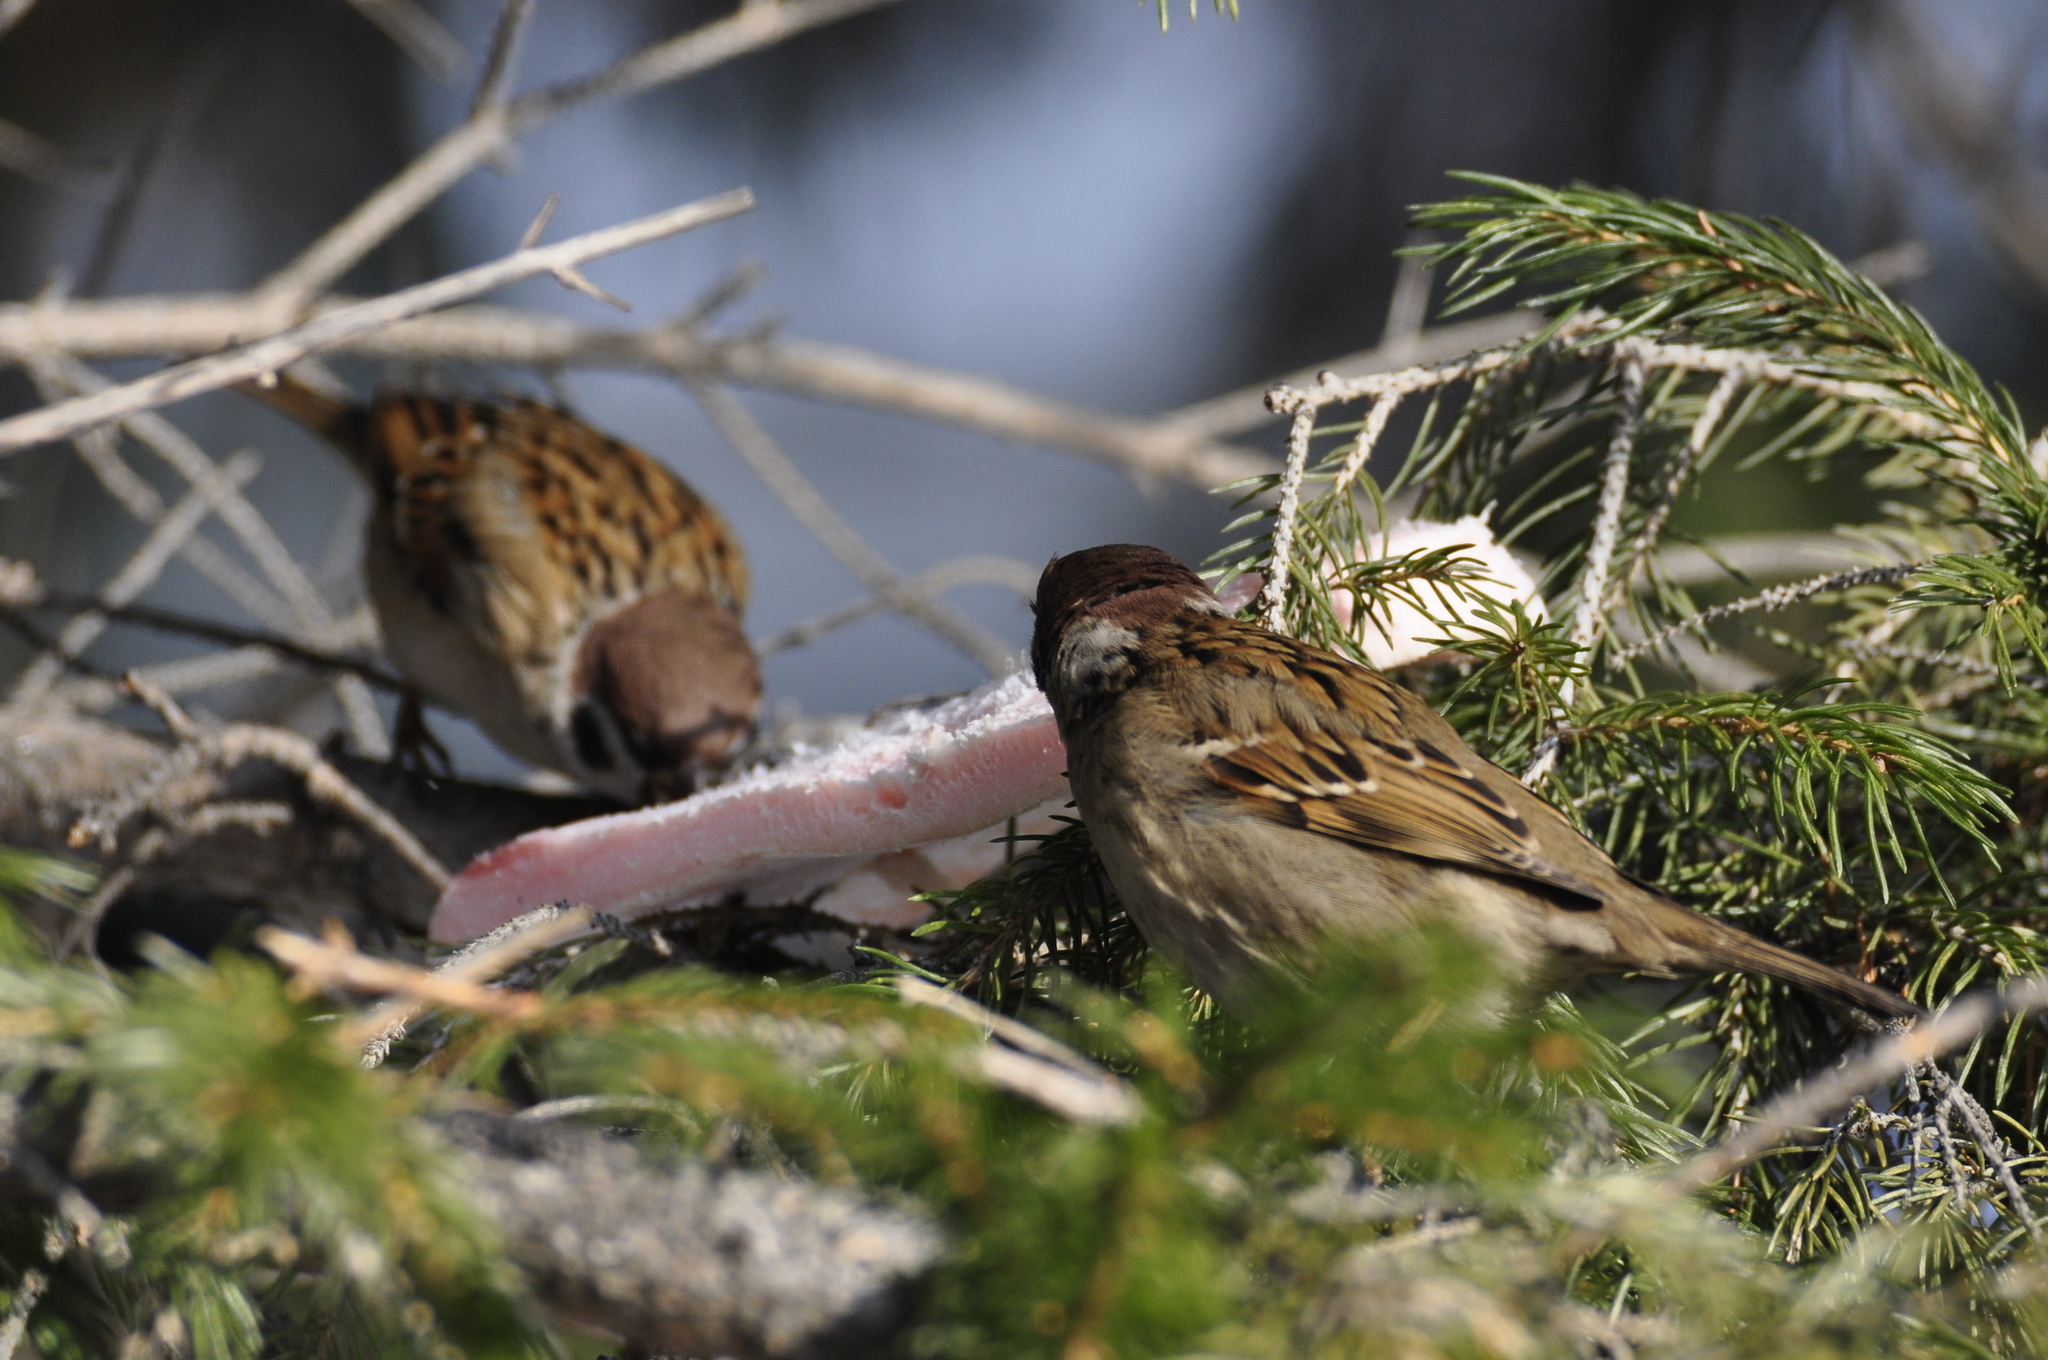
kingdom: Animalia
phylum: Chordata
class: Aves
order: Passeriformes
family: Passeridae
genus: Passer
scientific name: Passer montanus
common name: Eurasian tree sparrow
